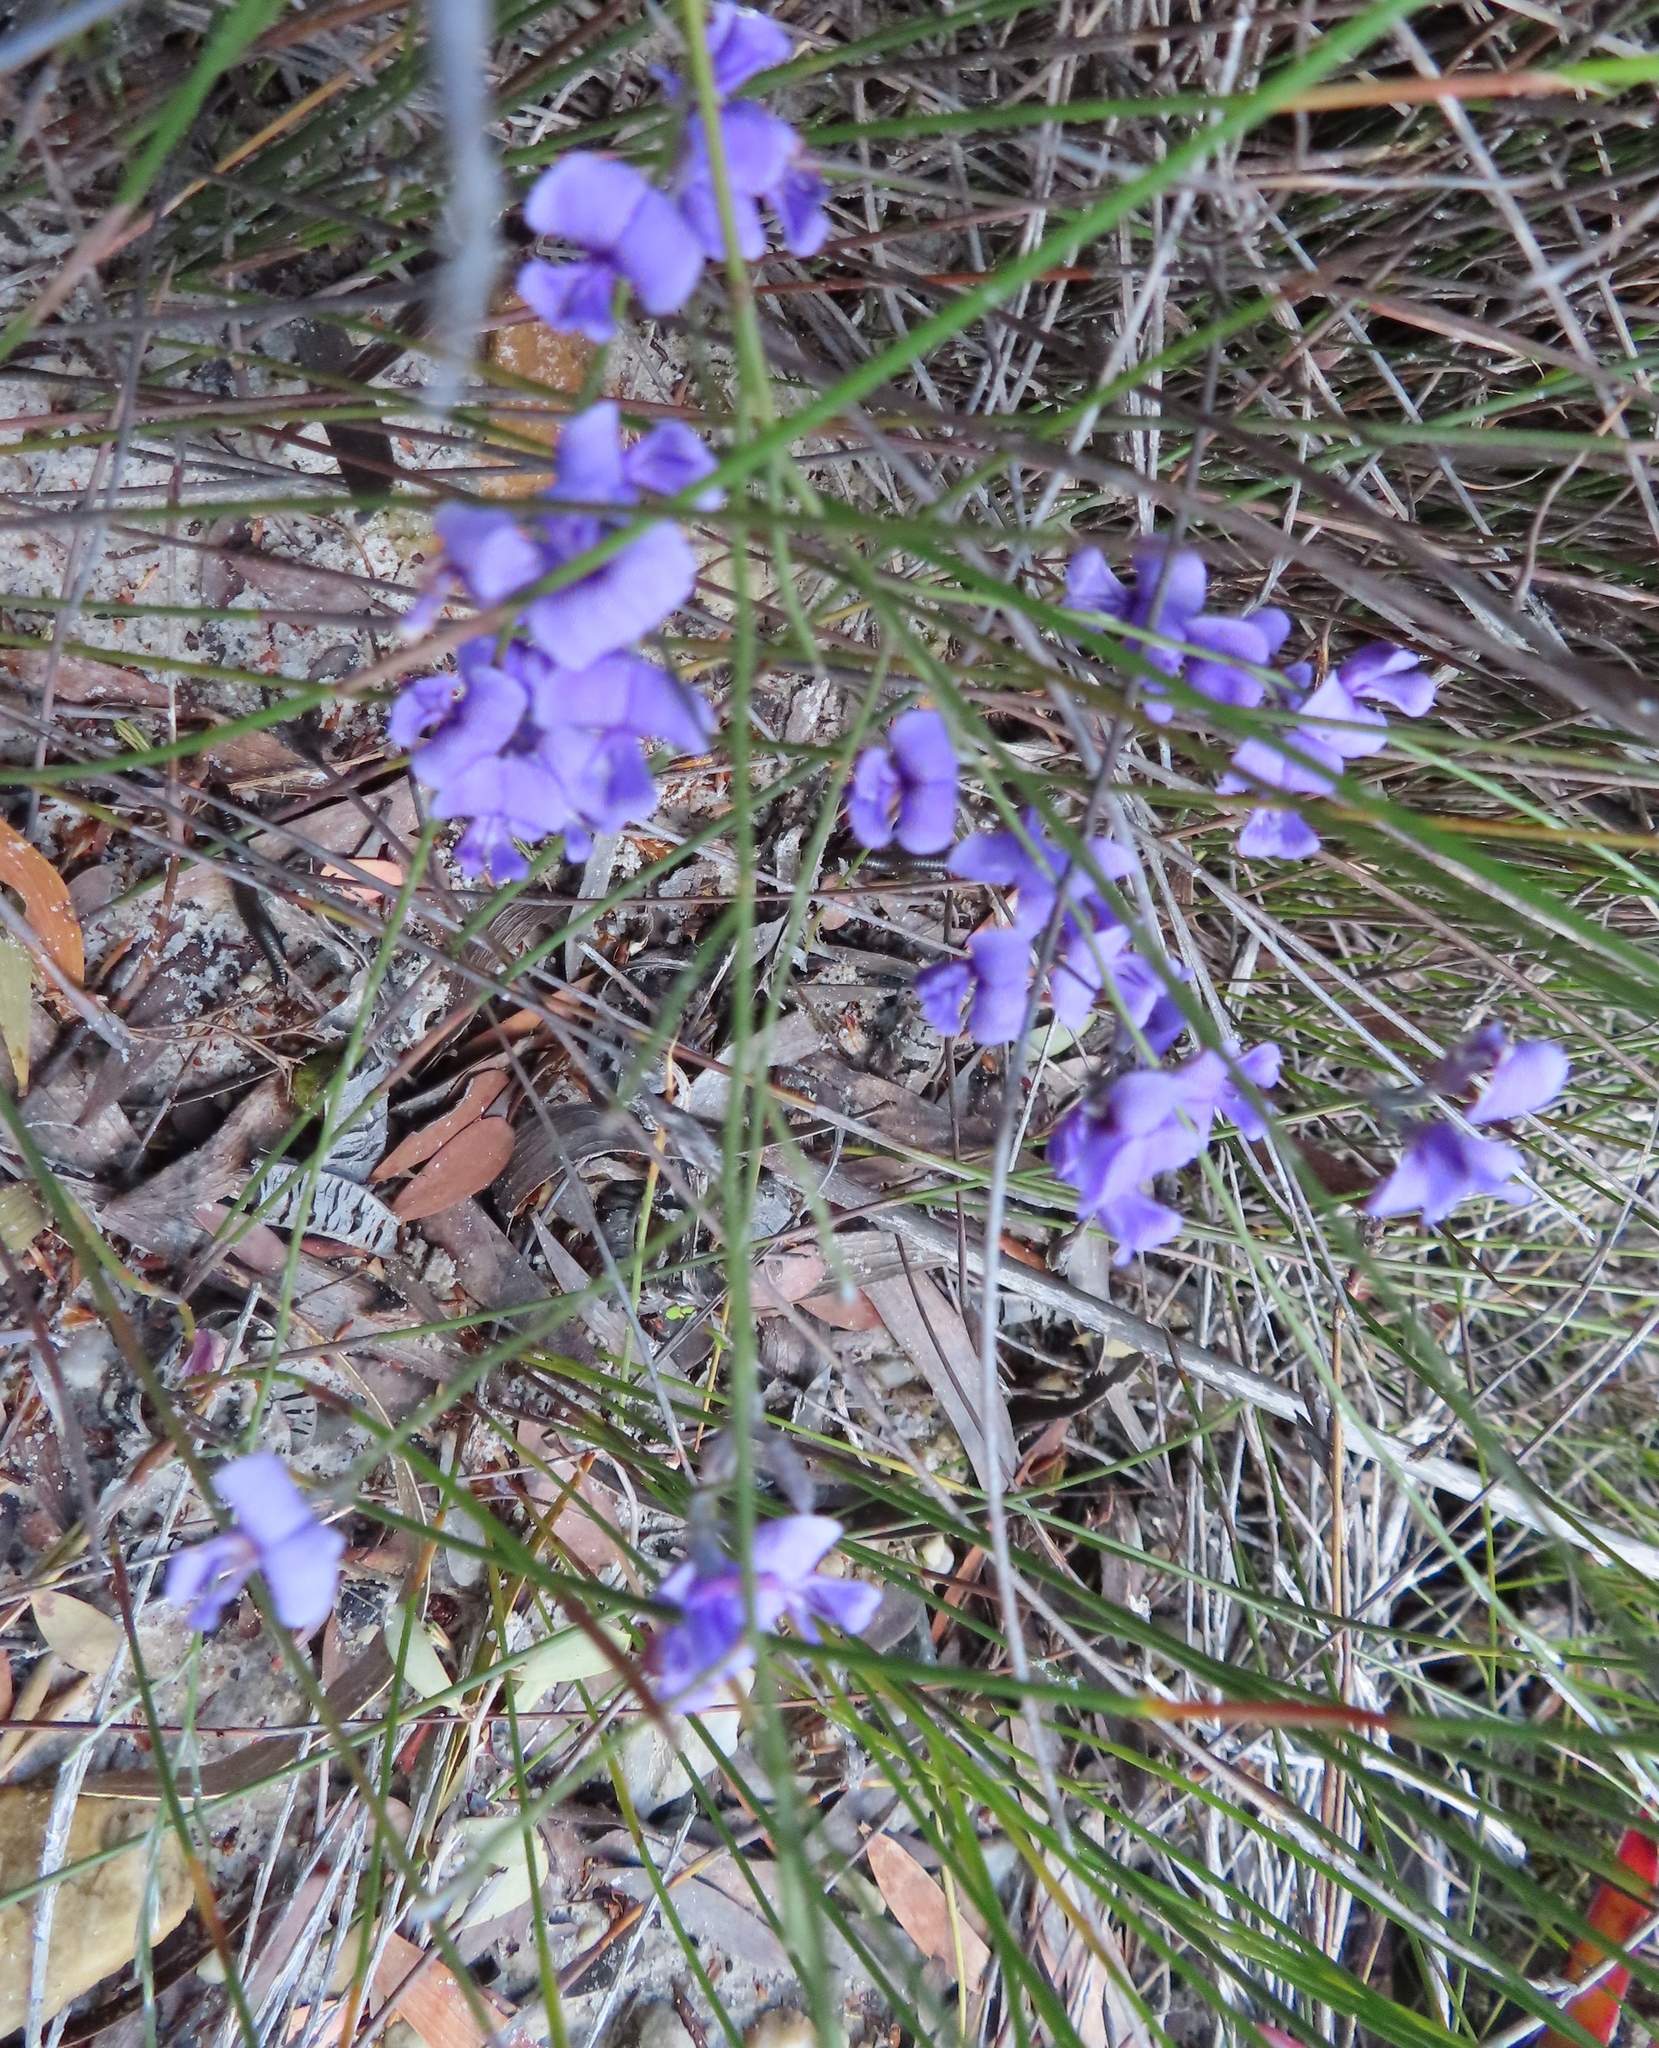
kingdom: Plantae
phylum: Tracheophyta
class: Magnoliopsida
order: Fabales
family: Fabaceae
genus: Amphithalea
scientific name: Amphithalea biovulata
